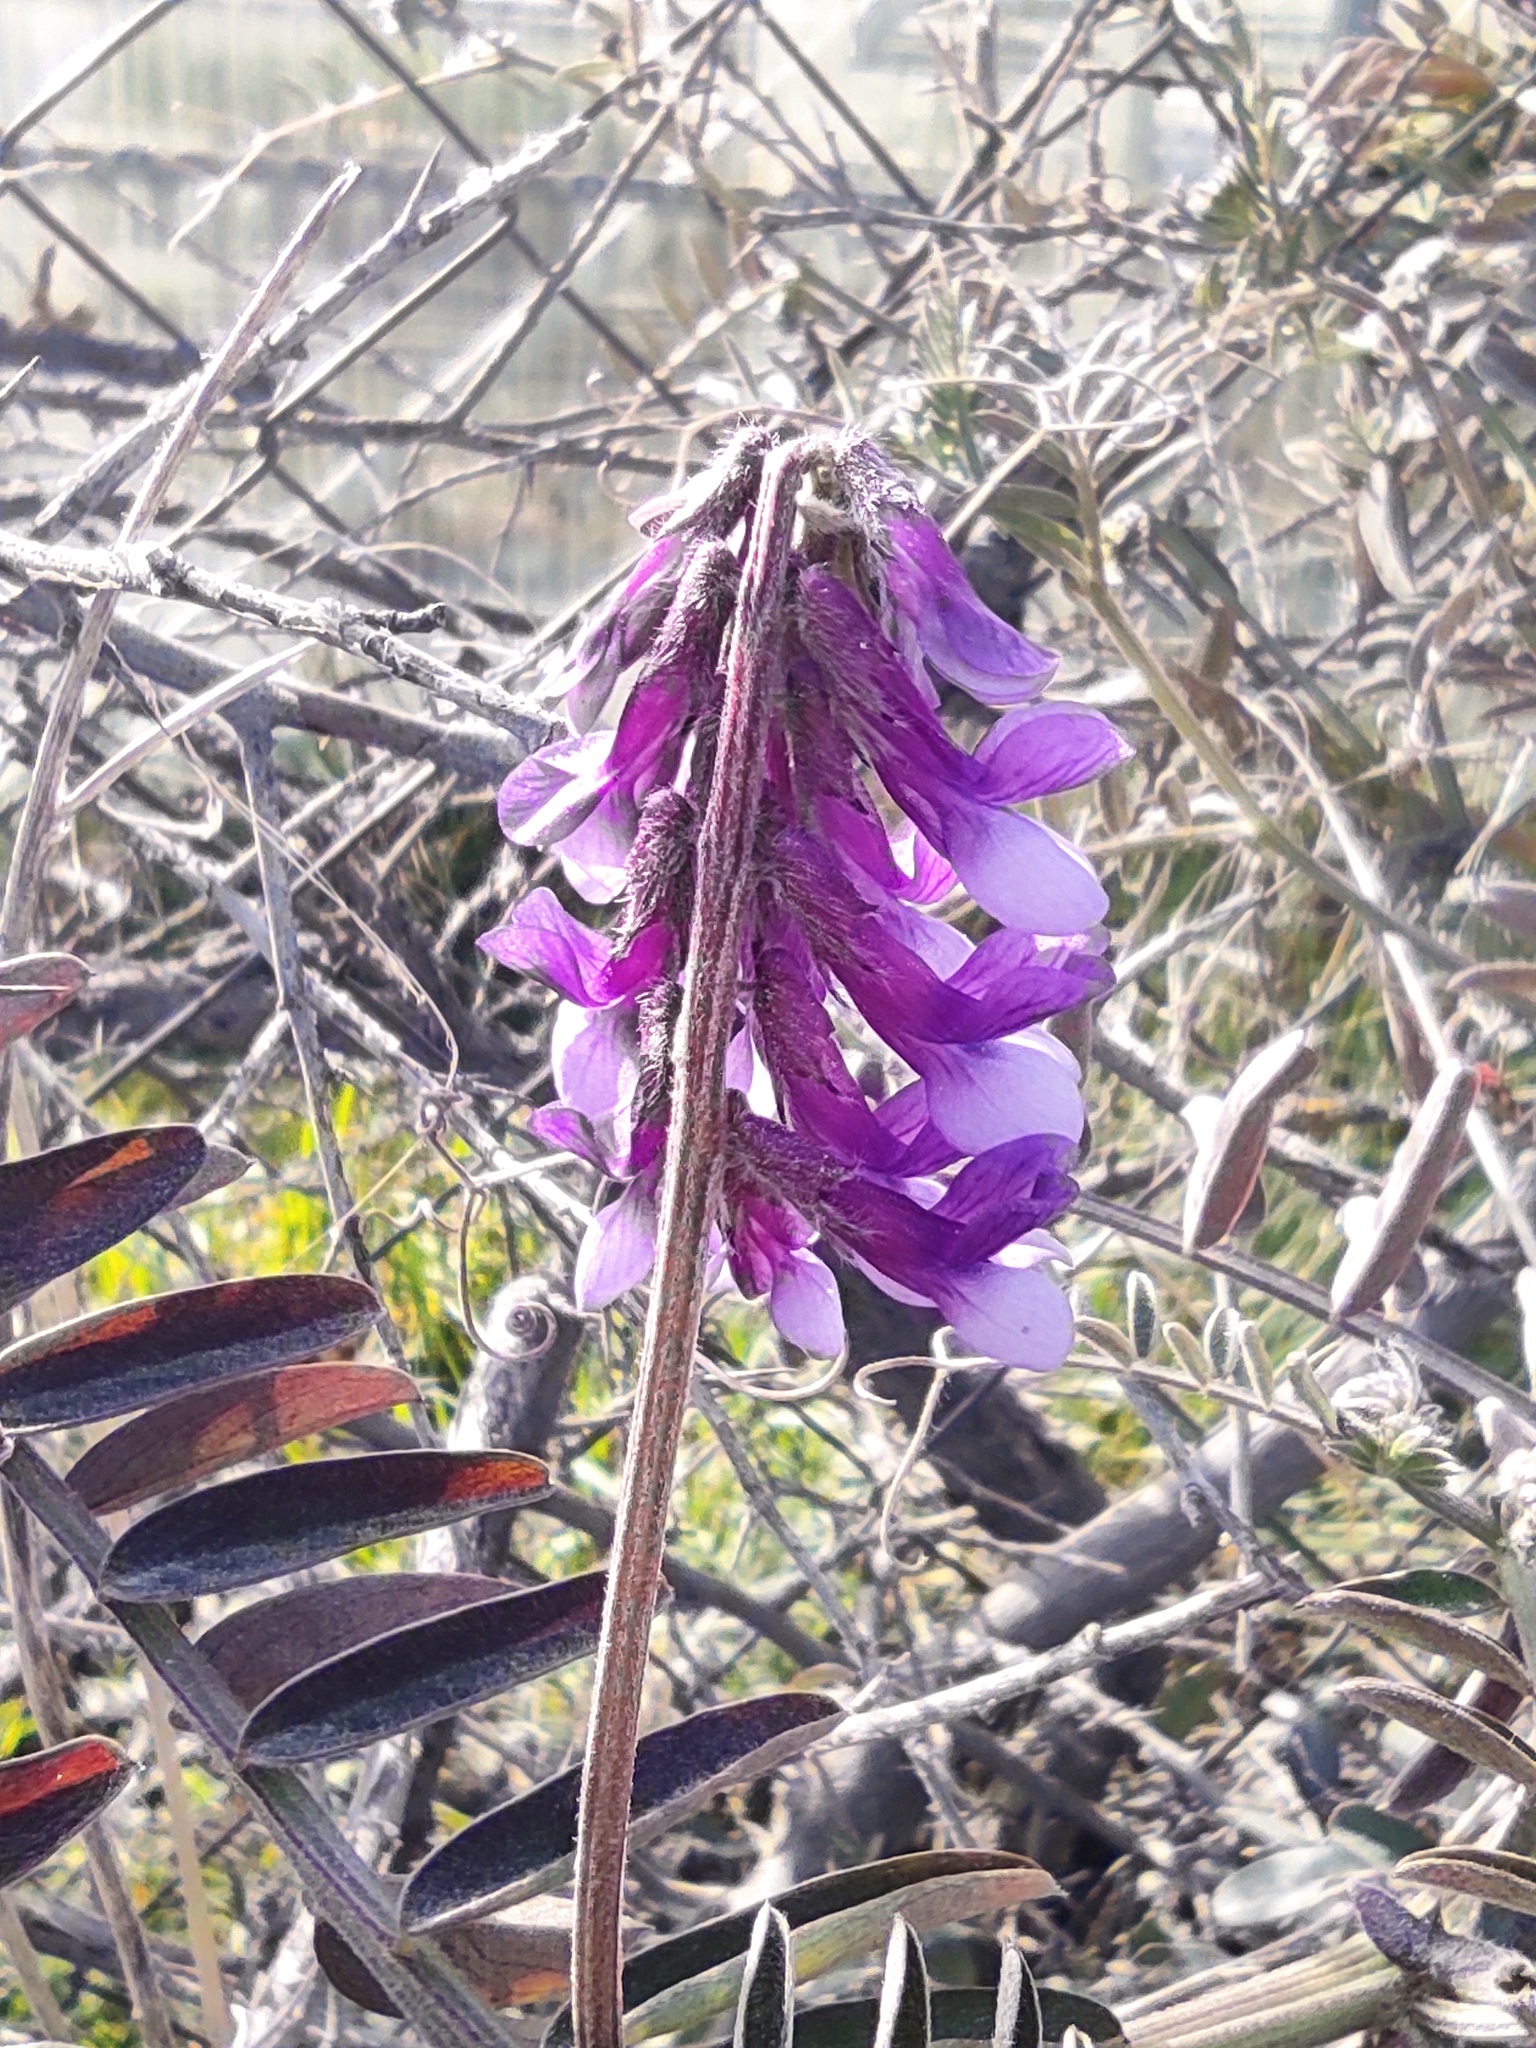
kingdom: Plantae
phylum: Tracheophyta
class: Magnoliopsida
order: Fabales
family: Fabaceae
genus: Vicia
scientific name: Vicia villosa
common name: Fodder vetch
